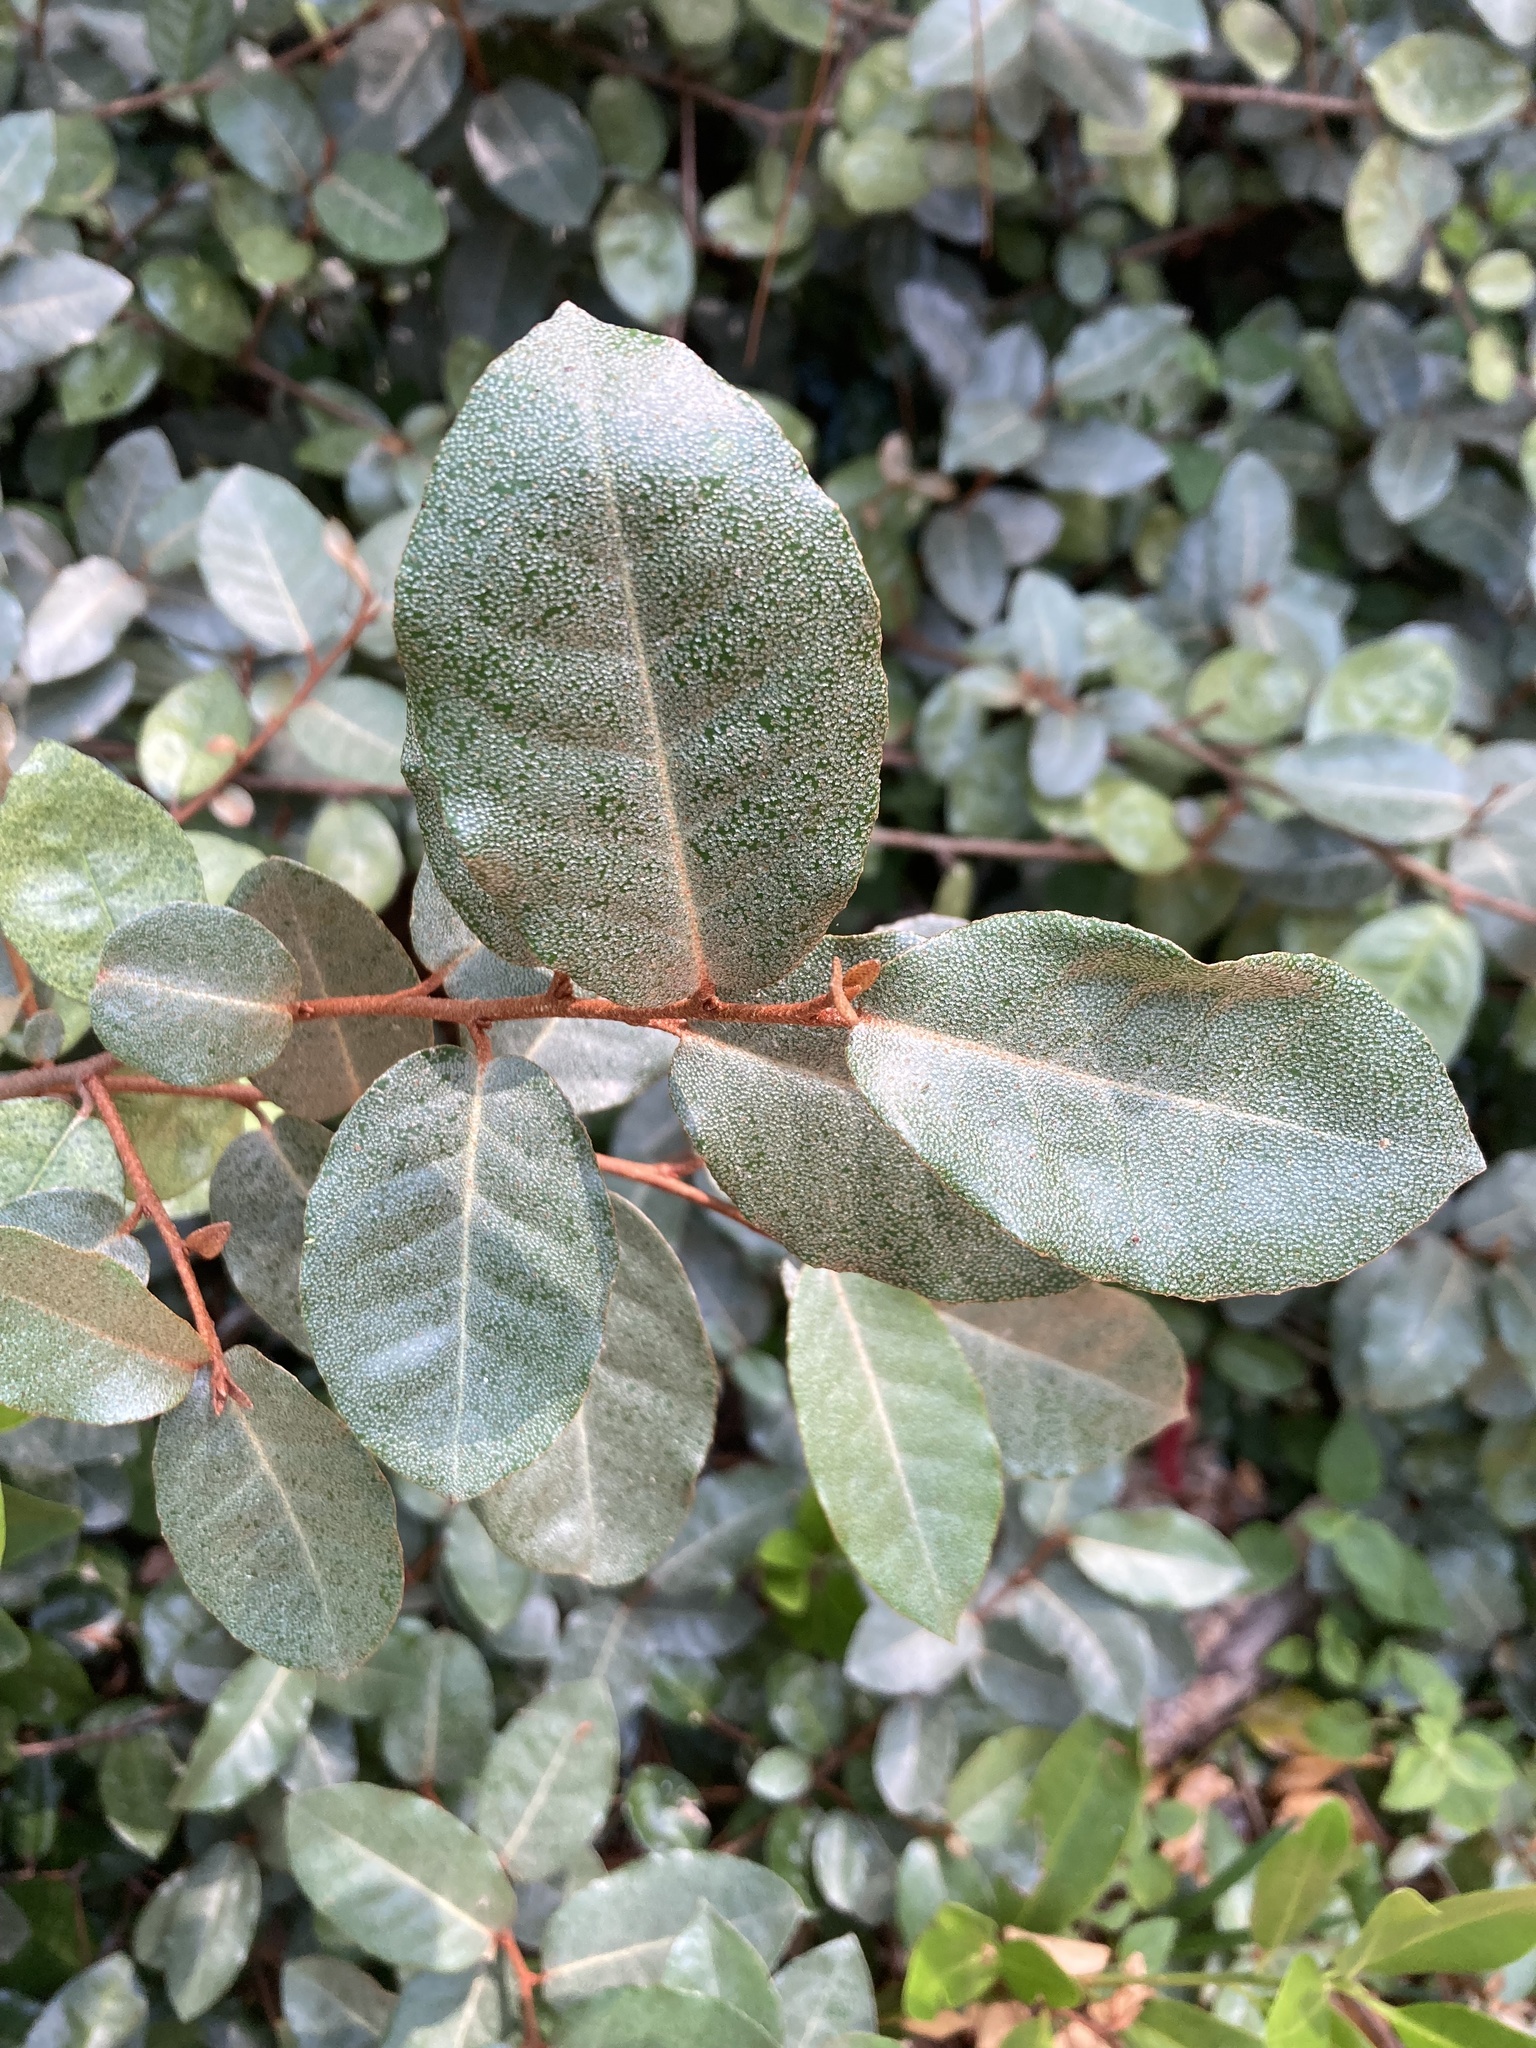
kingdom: Plantae
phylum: Tracheophyta
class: Magnoliopsida
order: Rosales
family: Elaeagnaceae
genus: Elaeagnus
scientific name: Elaeagnus pungens
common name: Spiny oleaster
